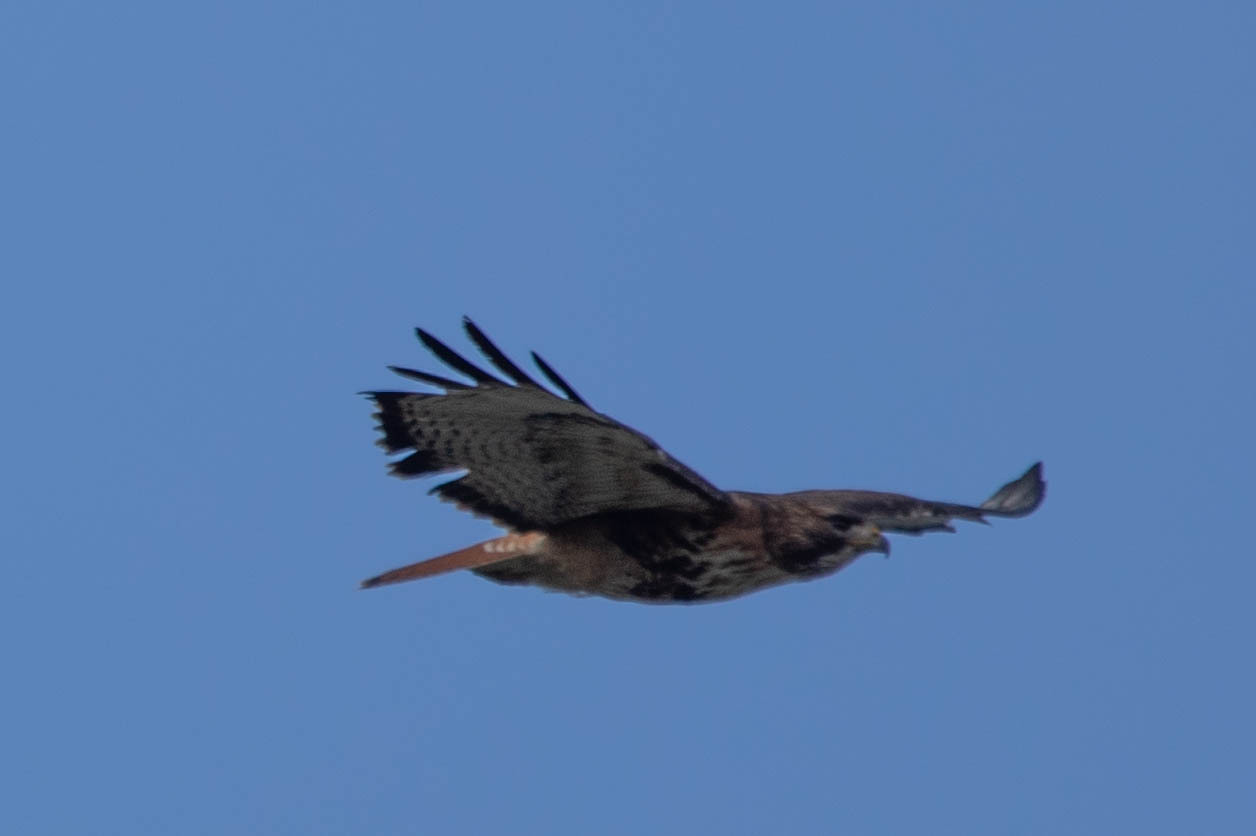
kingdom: Animalia
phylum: Chordata
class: Aves
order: Accipitriformes
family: Accipitridae
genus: Buteo
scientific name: Buteo jamaicensis
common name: Red-tailed hawk
